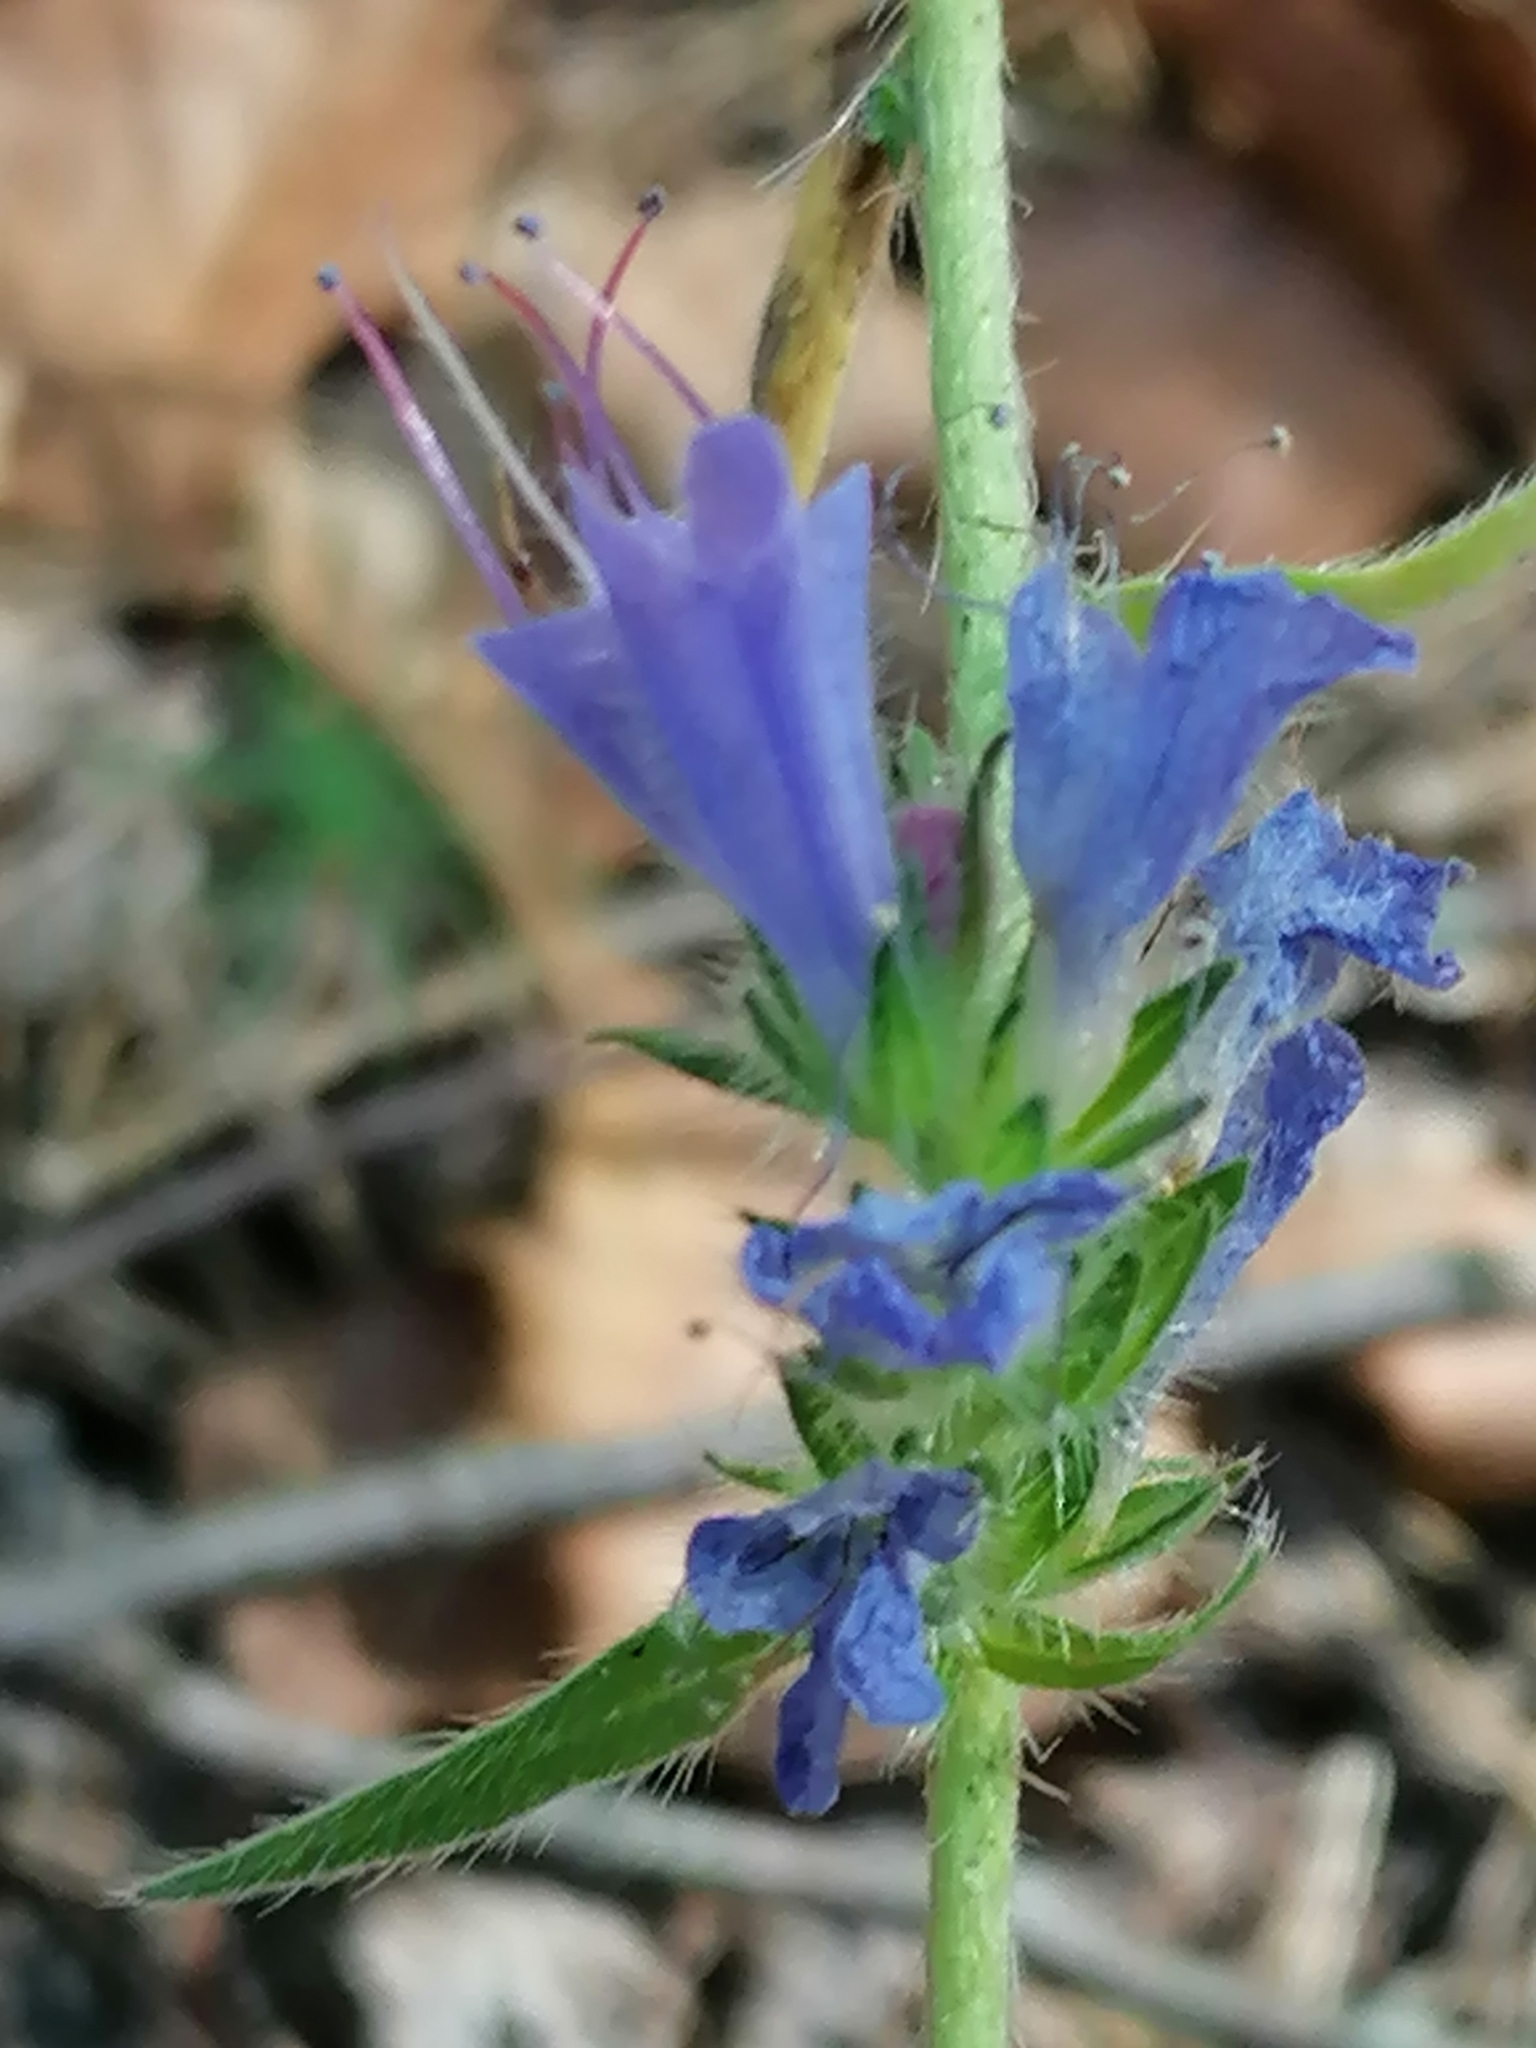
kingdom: Plantae
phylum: Tracheophyta
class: Magnoliopsida
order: Boraginales
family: Boraginaceae
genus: Echium
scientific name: Echium vulgare
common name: Common viper's bugloss
